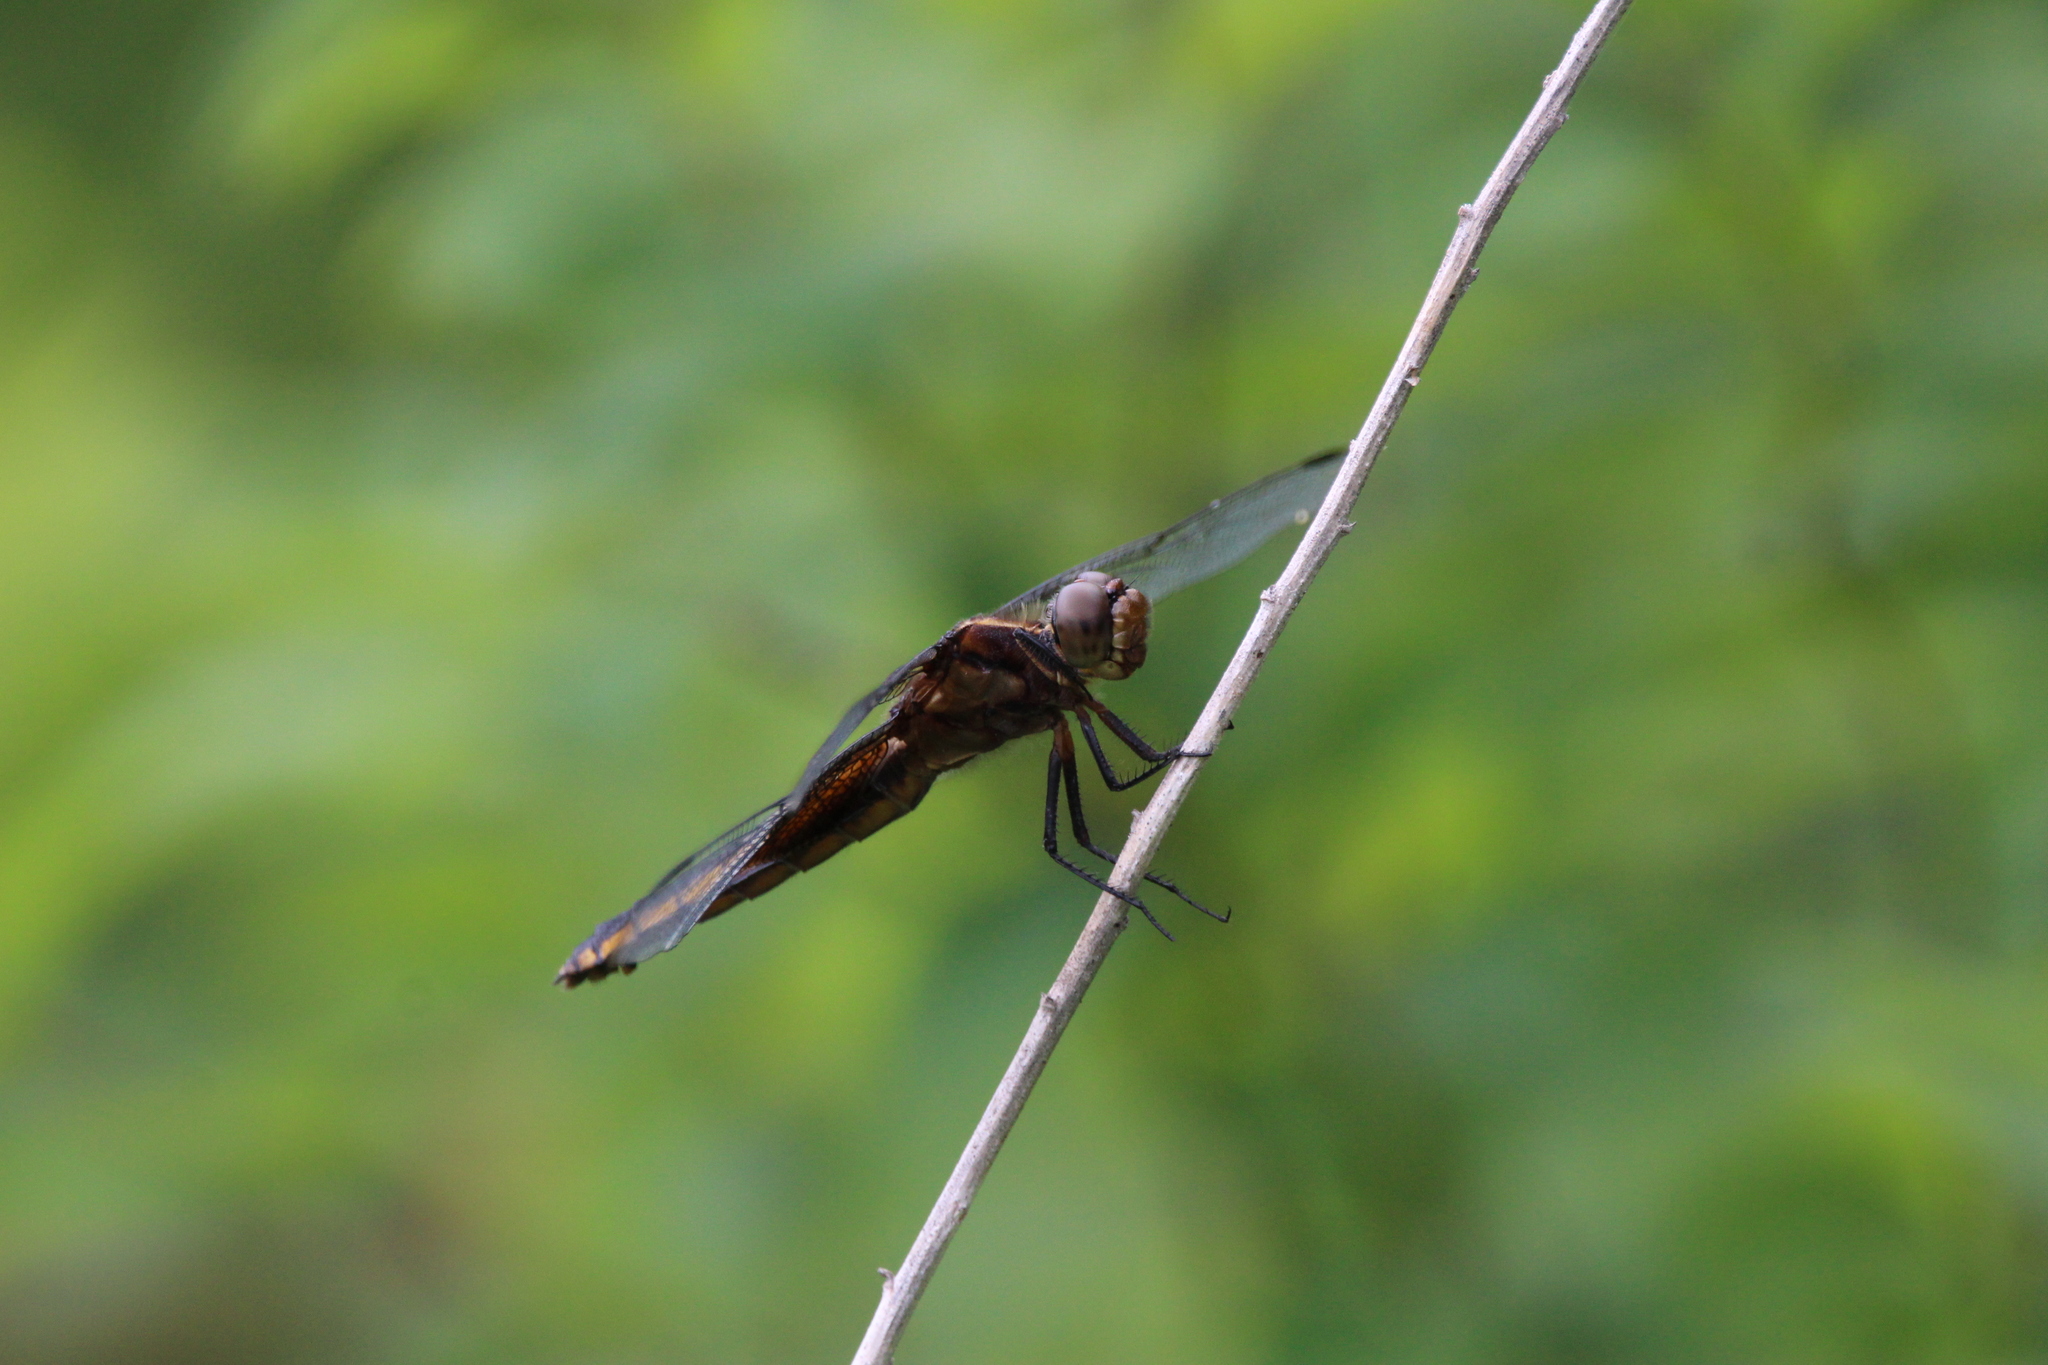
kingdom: Animalia
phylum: Arthropoda
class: Insecta
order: Odonata
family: Libellulidae
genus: Libellula
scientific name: Libellula luctuosa
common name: Widow skimmer
